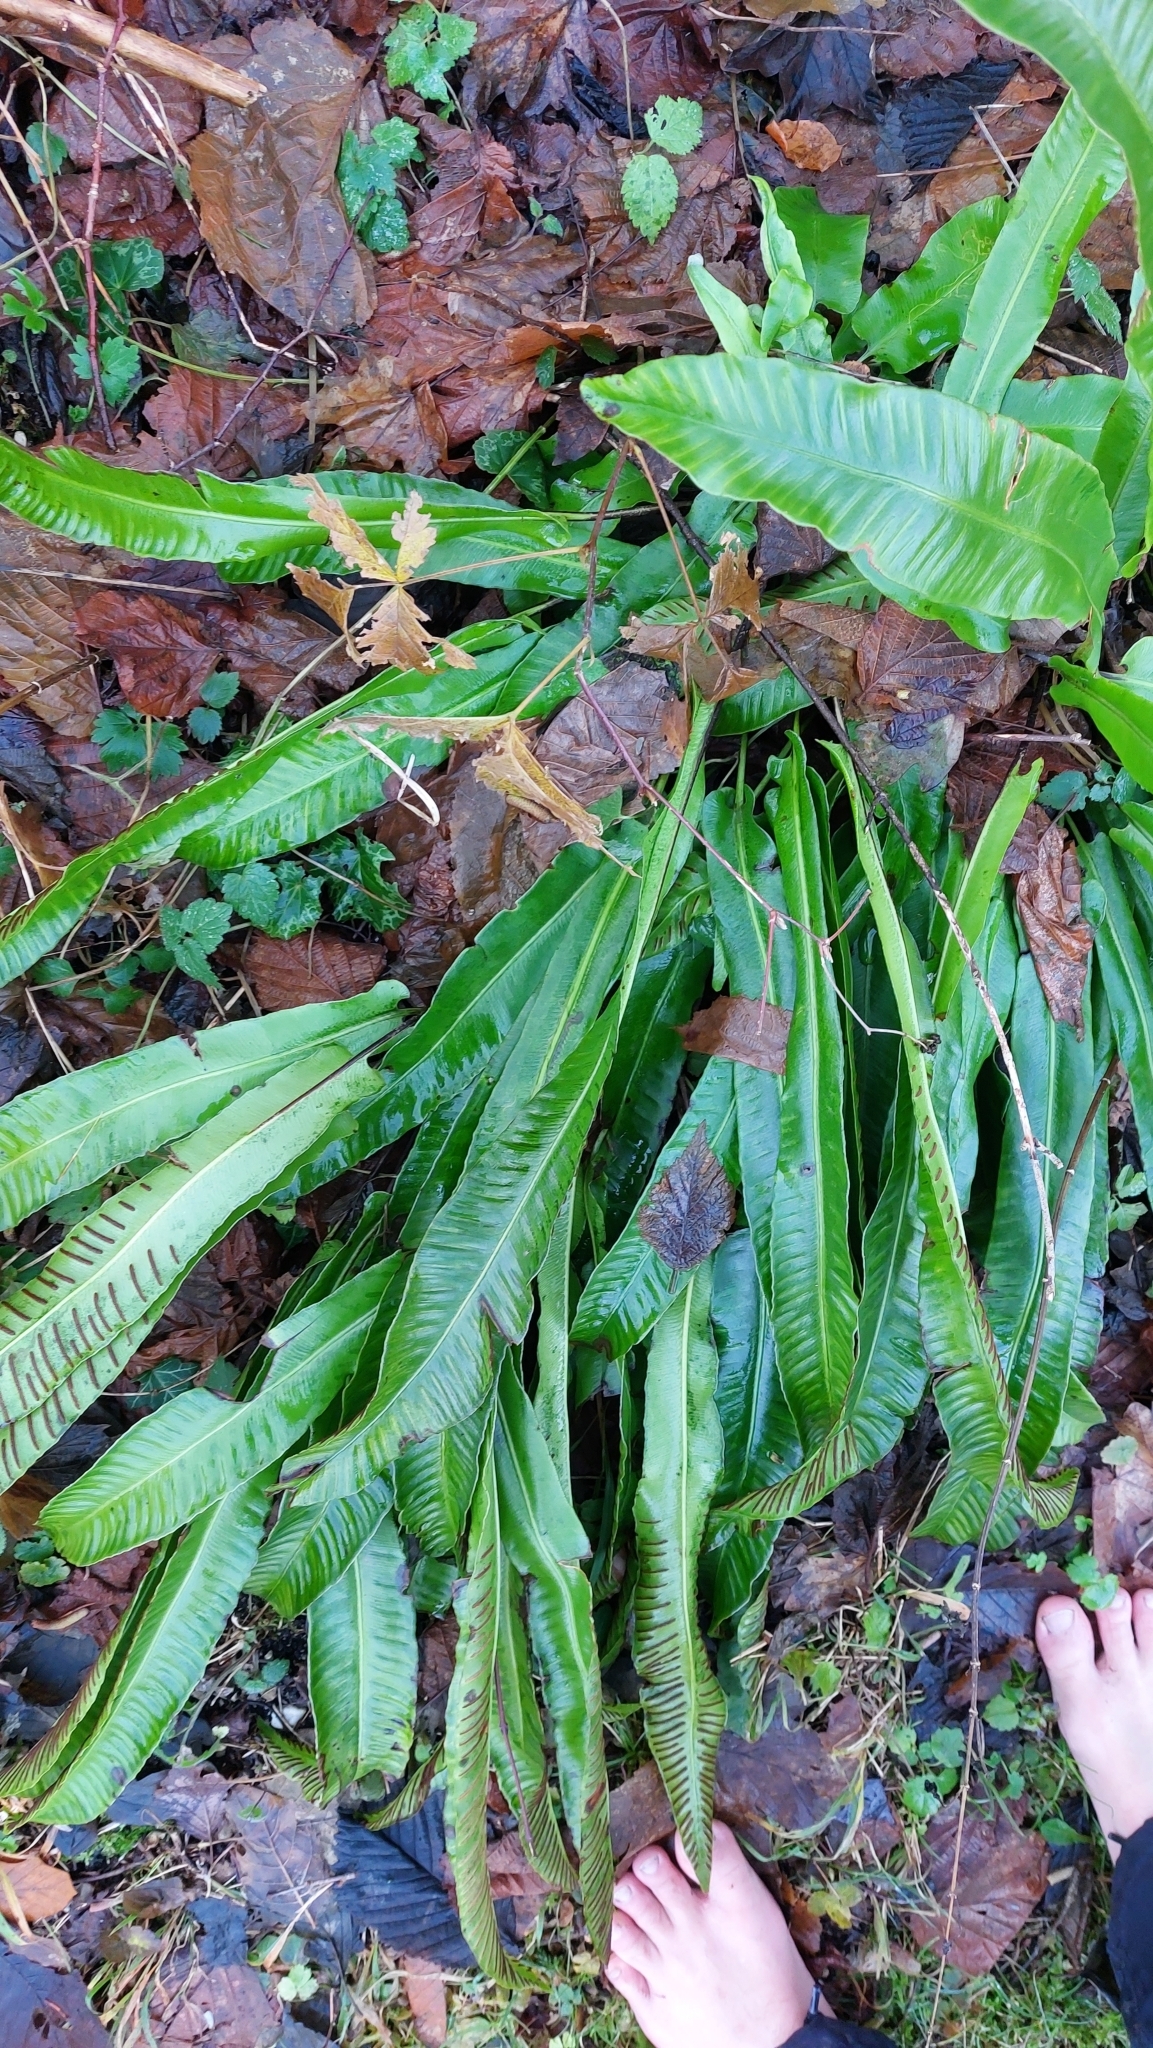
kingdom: Plantae
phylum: Tracheophyta
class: Polypodiopsida
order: Polypodiales
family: Aspleniaceae
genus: Asplenium
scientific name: Asplenium scolopendrium
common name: Hart's-tongue fern
